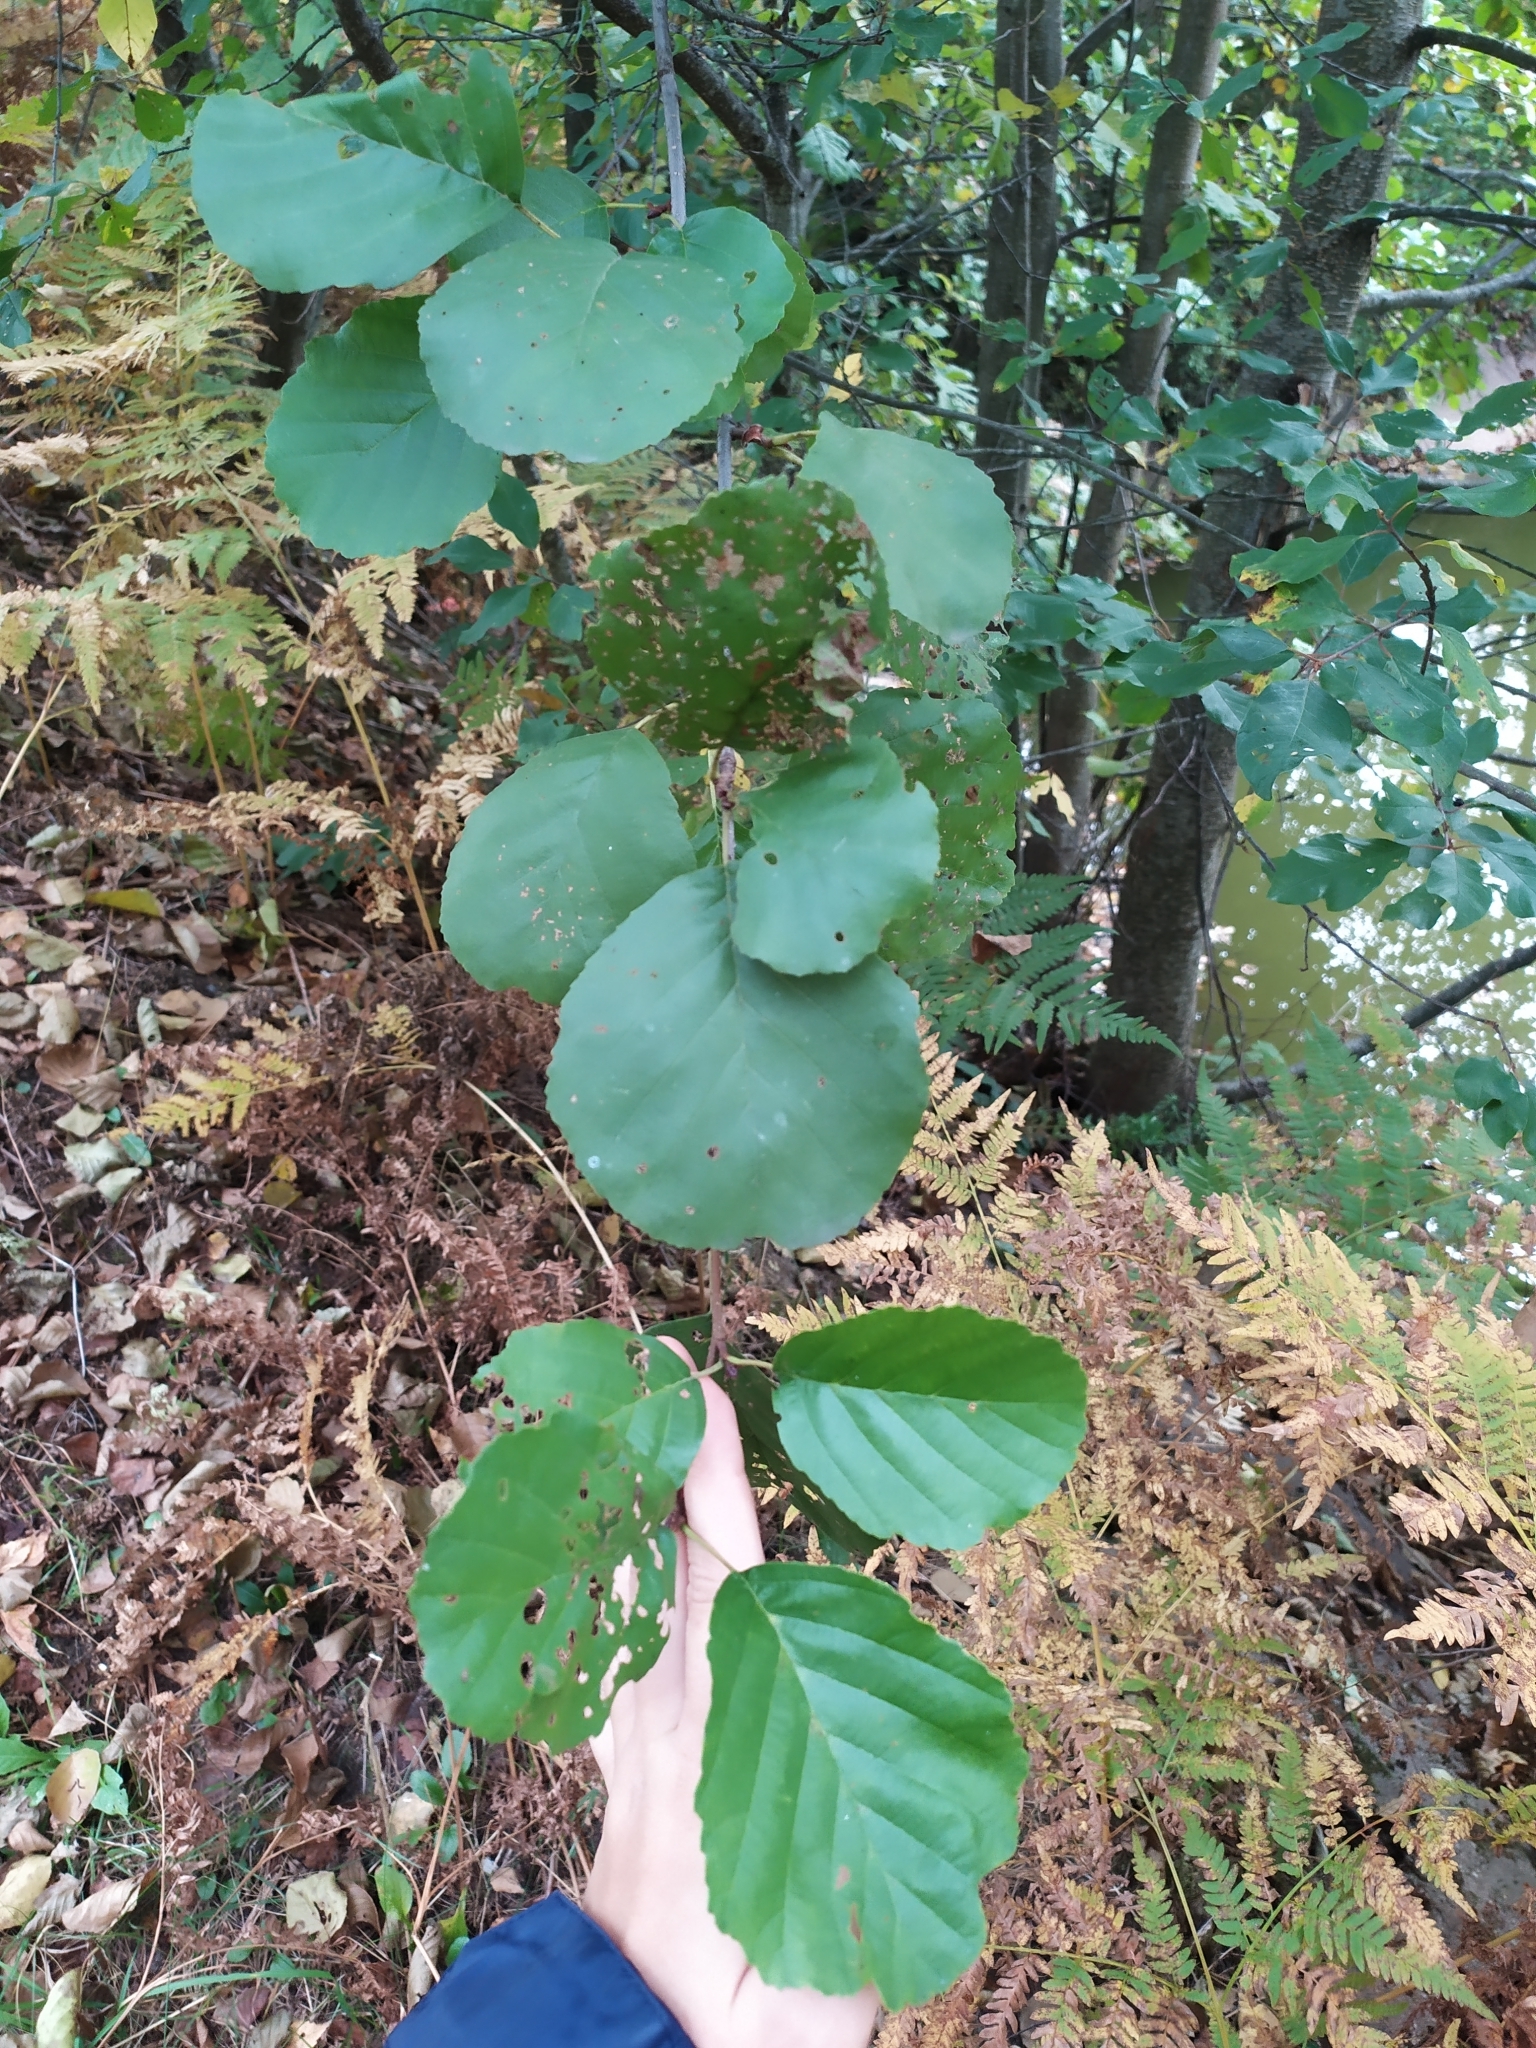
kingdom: Plantae
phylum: Tracheophyta
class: Magnoliopsida
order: Fagales
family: Betulaceae
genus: Alnus
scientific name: Alnus glutinosa
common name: Black alder
